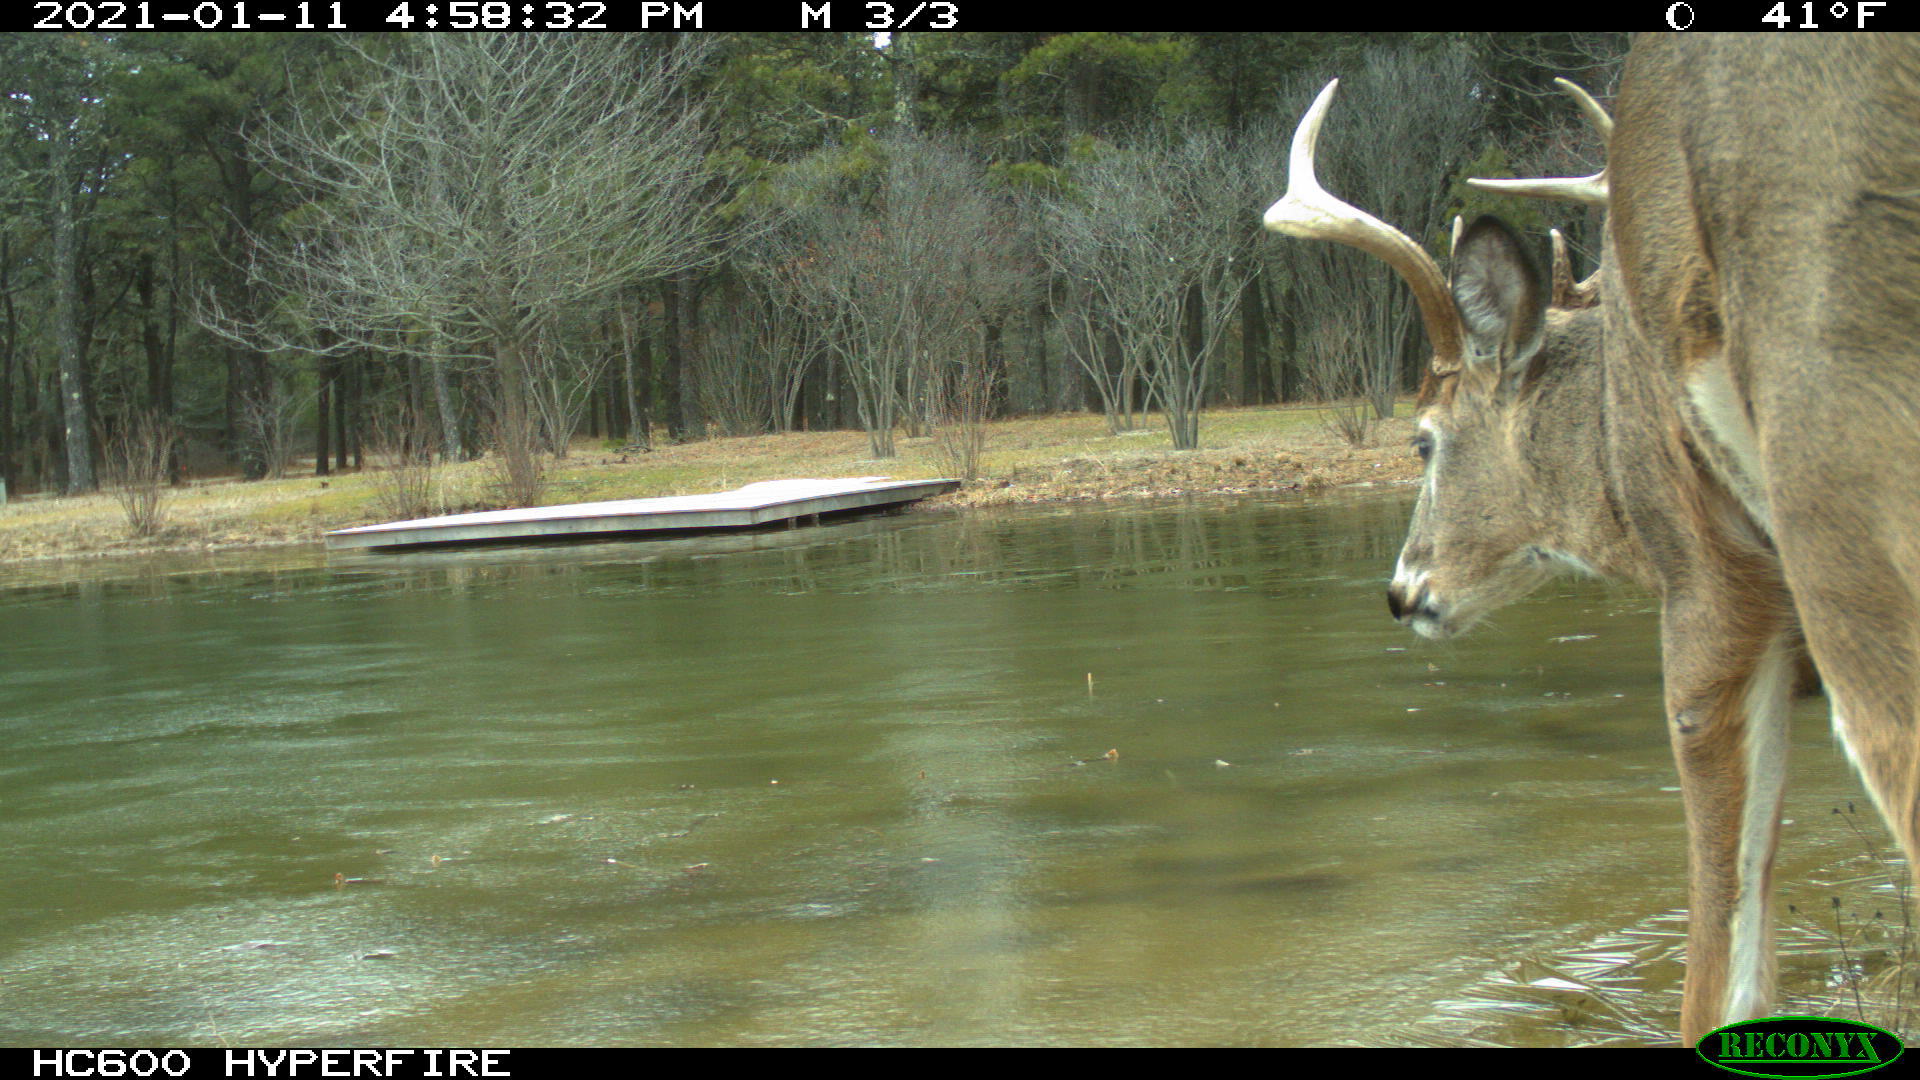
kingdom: Animalia
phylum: Chordata
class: Mammalia
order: Artiodactyla
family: Cervidae
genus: Odocoileus
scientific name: Odocoileus virginianus
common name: White-tailed deer
